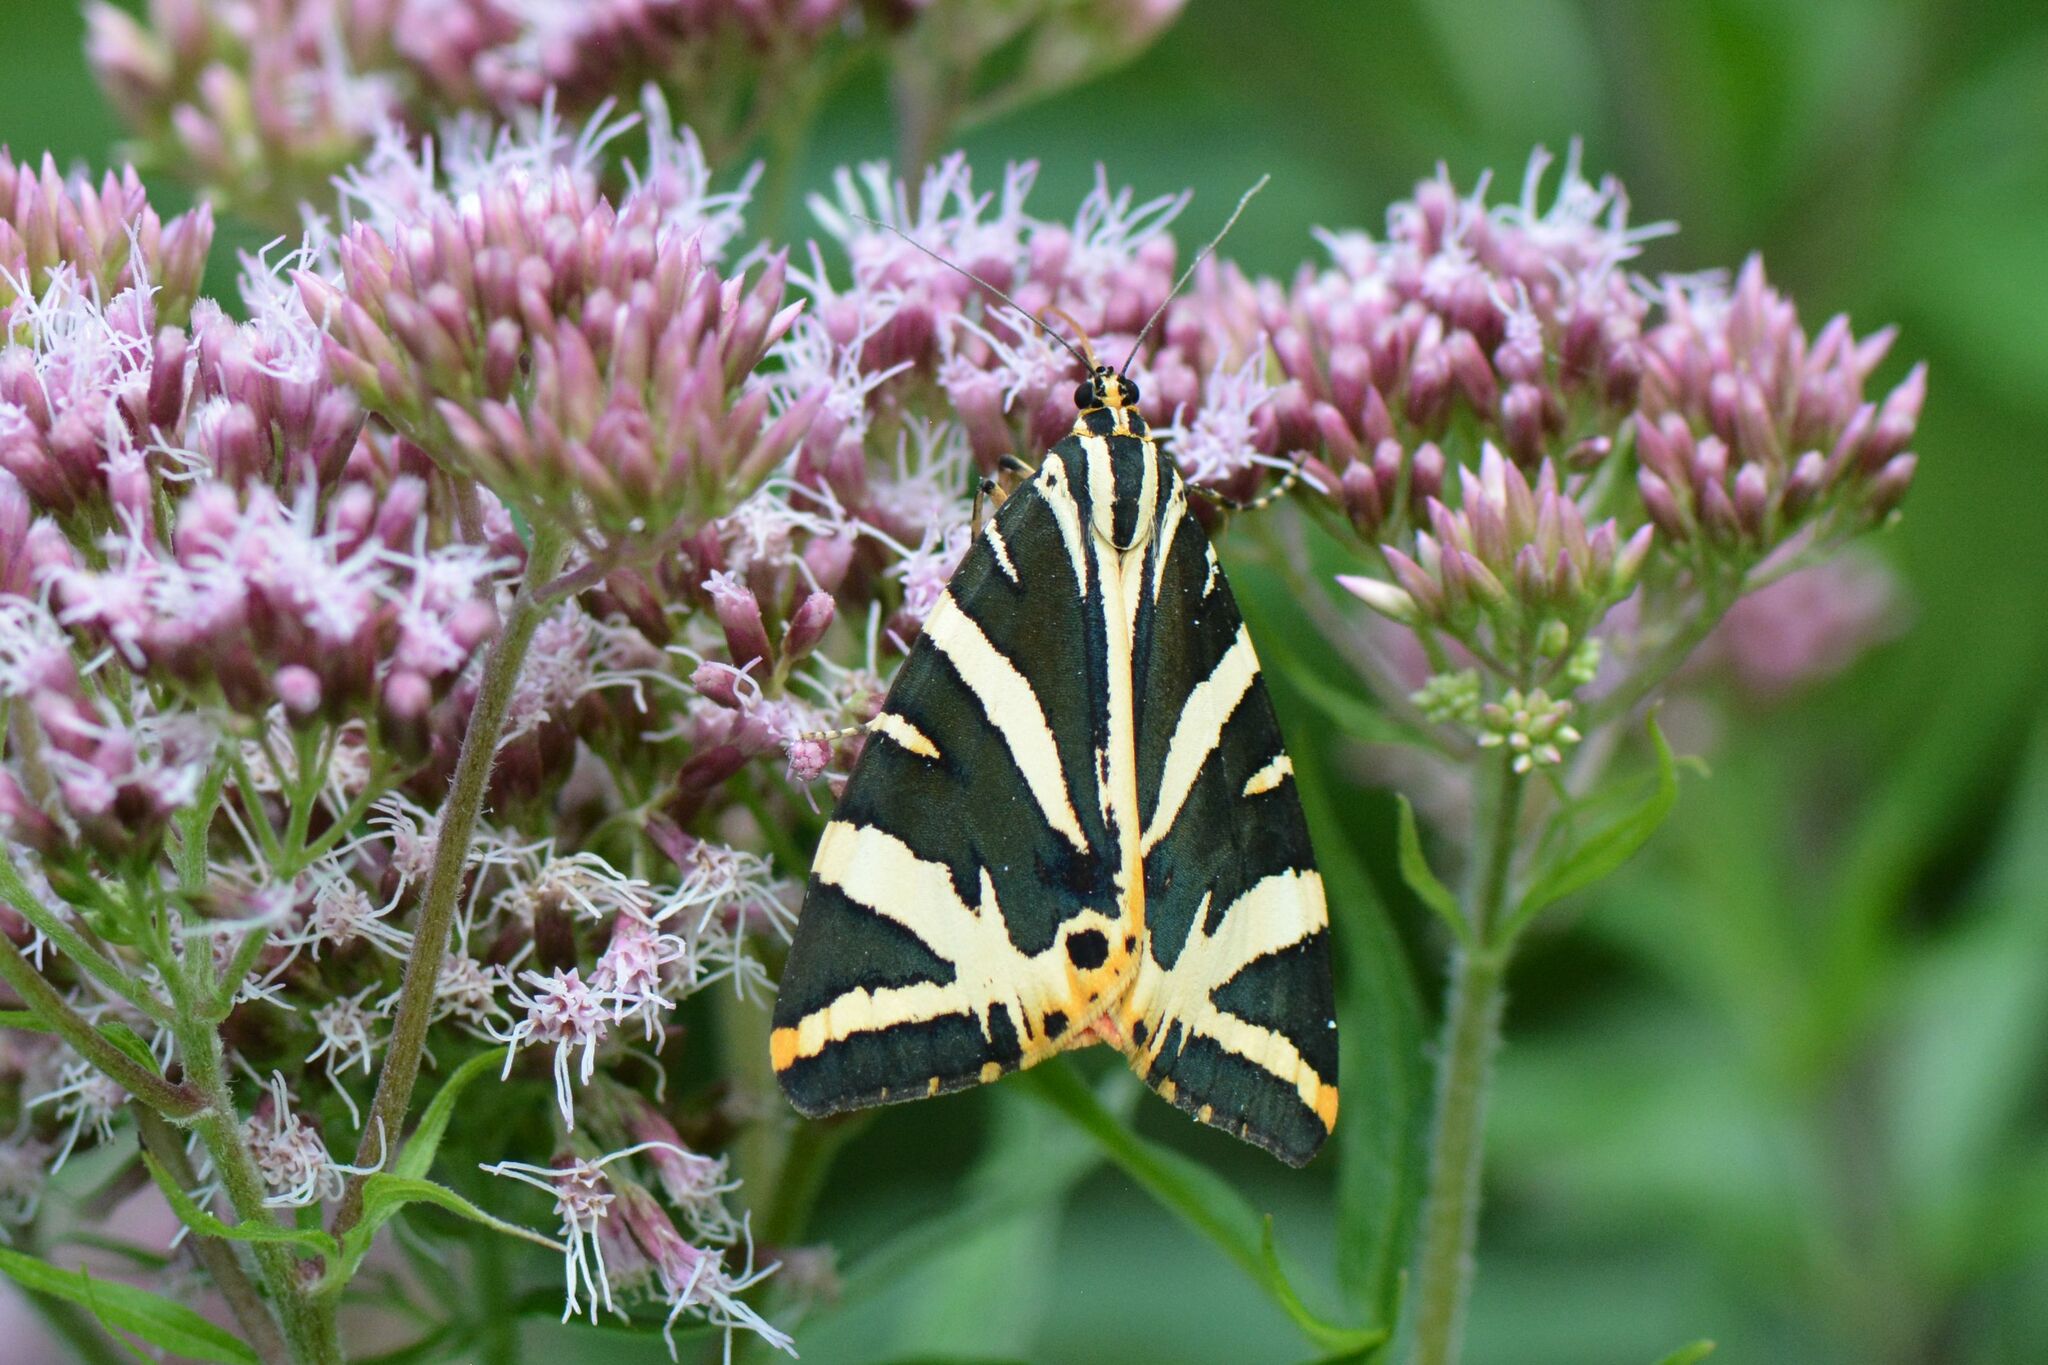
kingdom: Animalia
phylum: Arthropoda
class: Insecta
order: Lepidoptera
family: Erebidae
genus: Euplagia
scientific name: Euplagia quadripunctaria
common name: Jersey tiger
